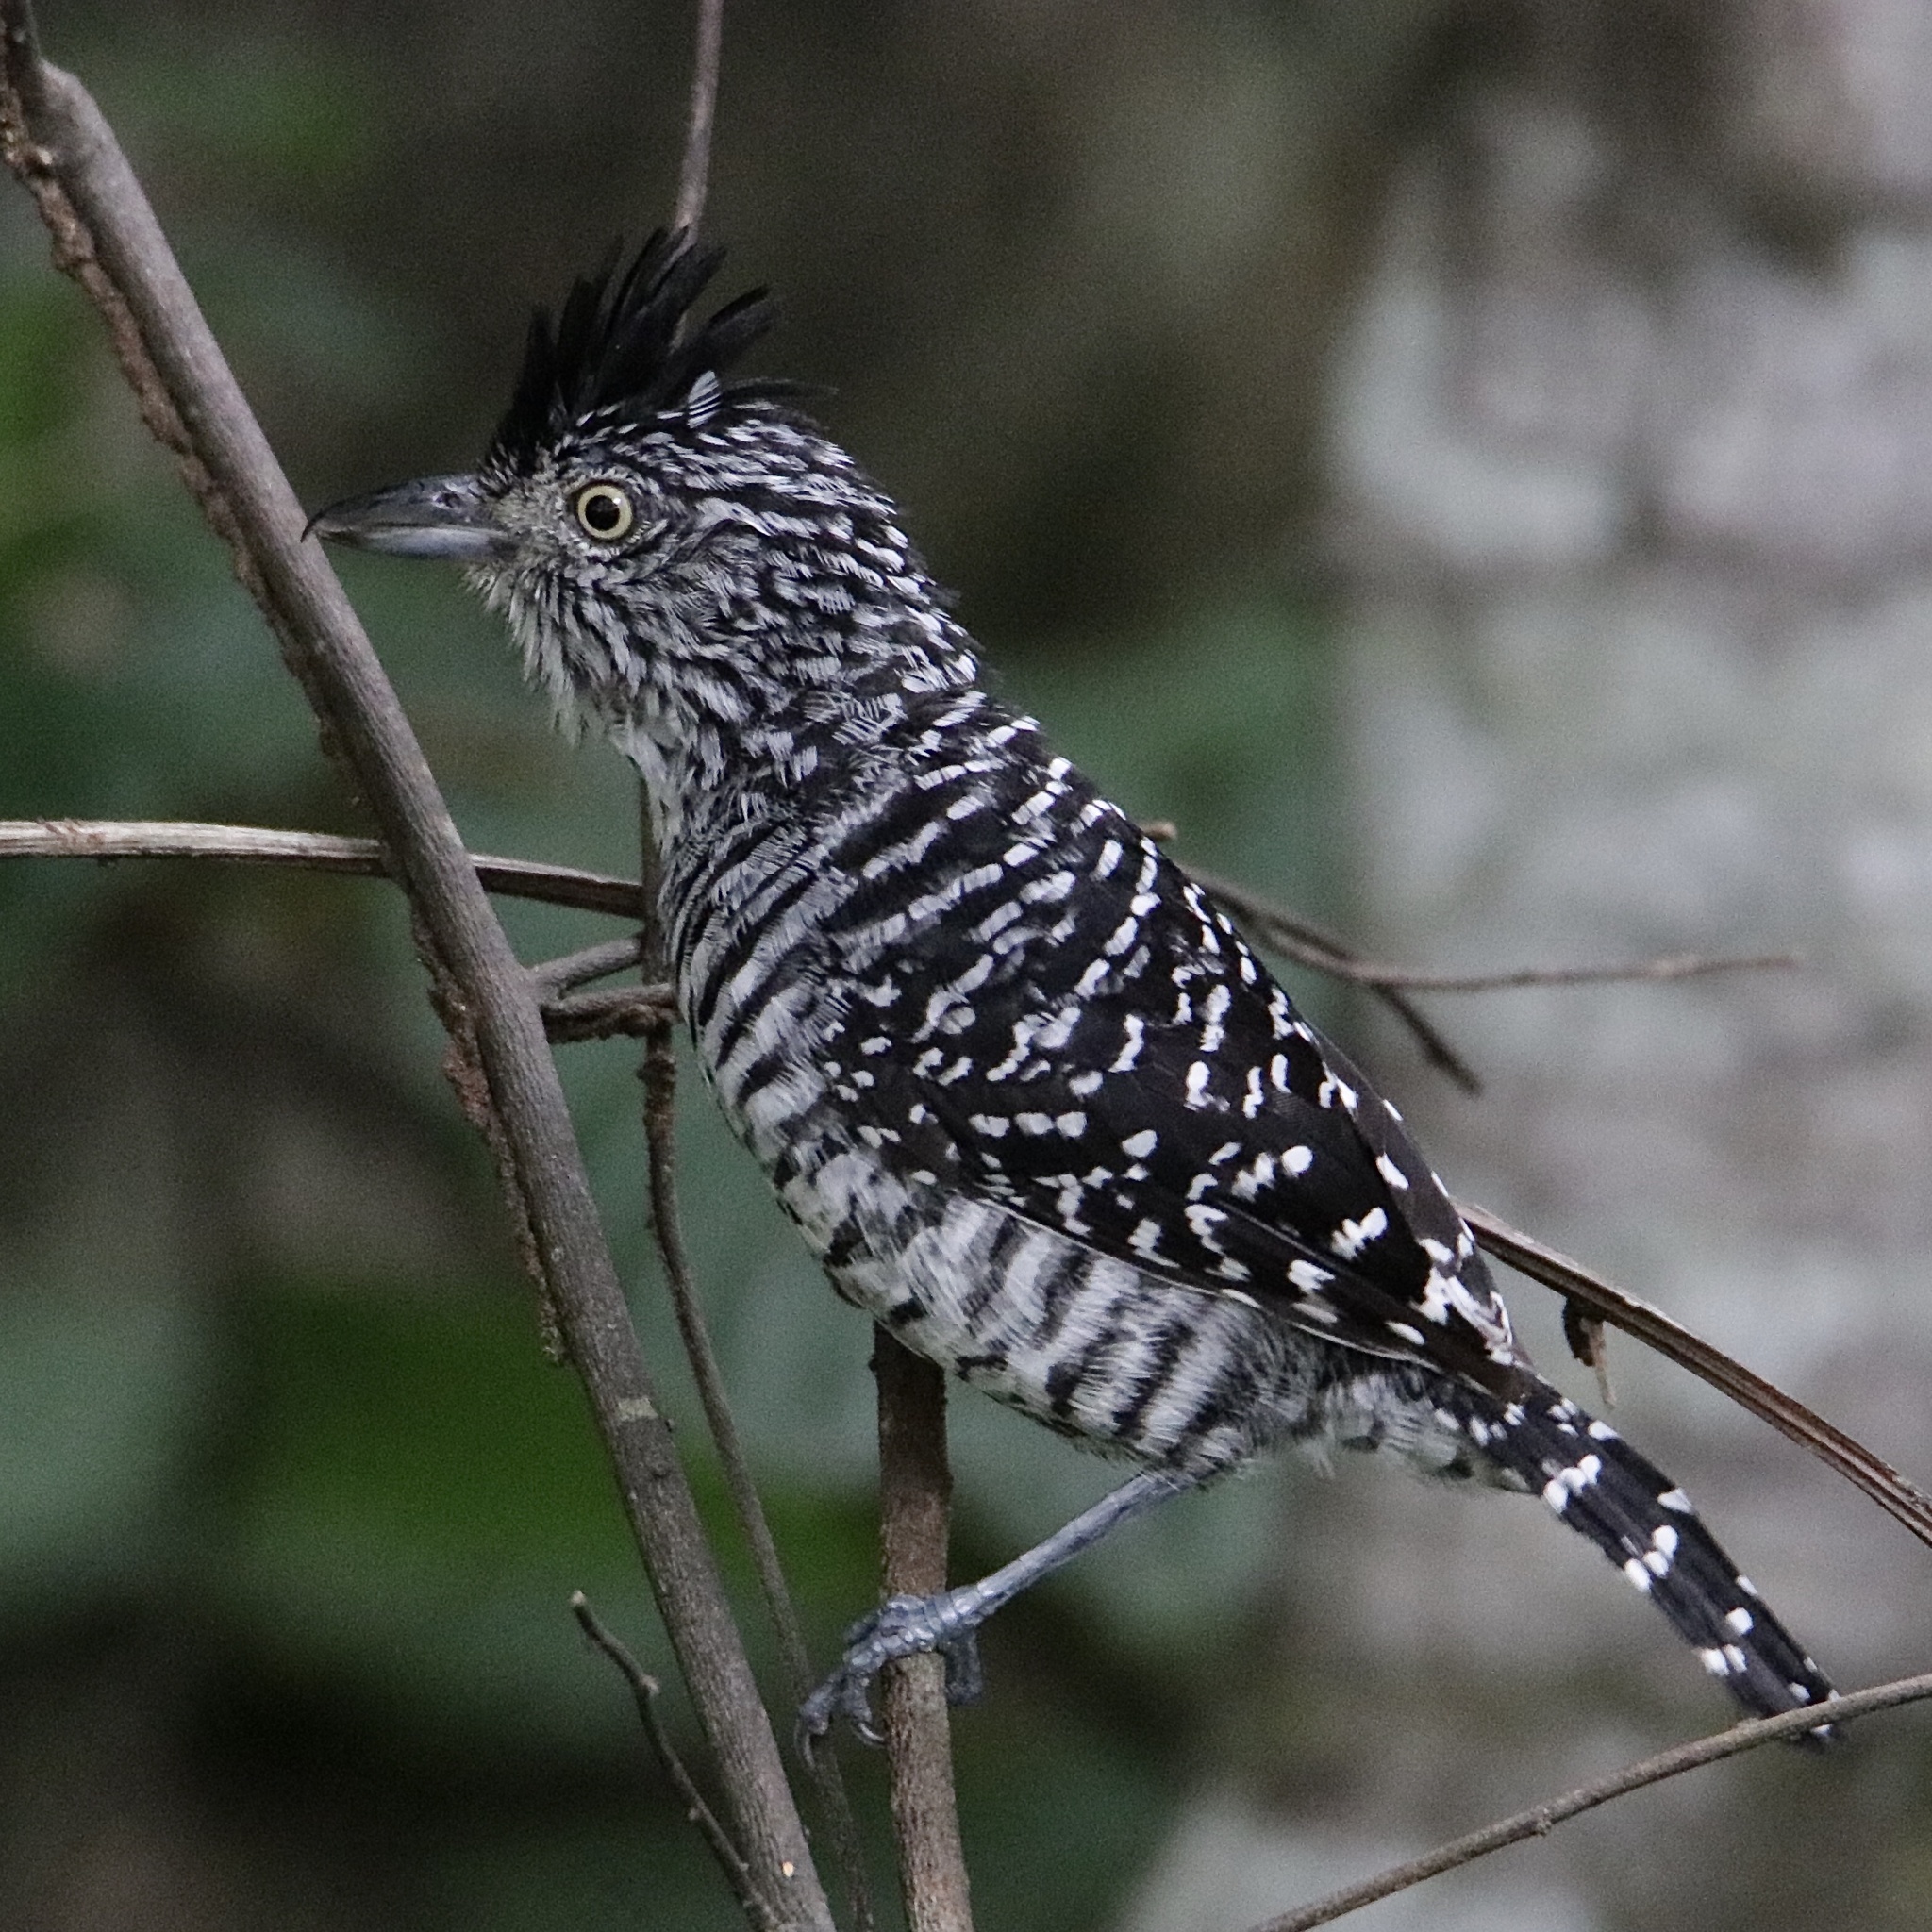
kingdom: Animalia
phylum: Chordata
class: Aves
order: Passeriformes
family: Thamnophilidae
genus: Thamnophilus
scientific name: Thamnophilus doliatus
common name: Barred antshrike
